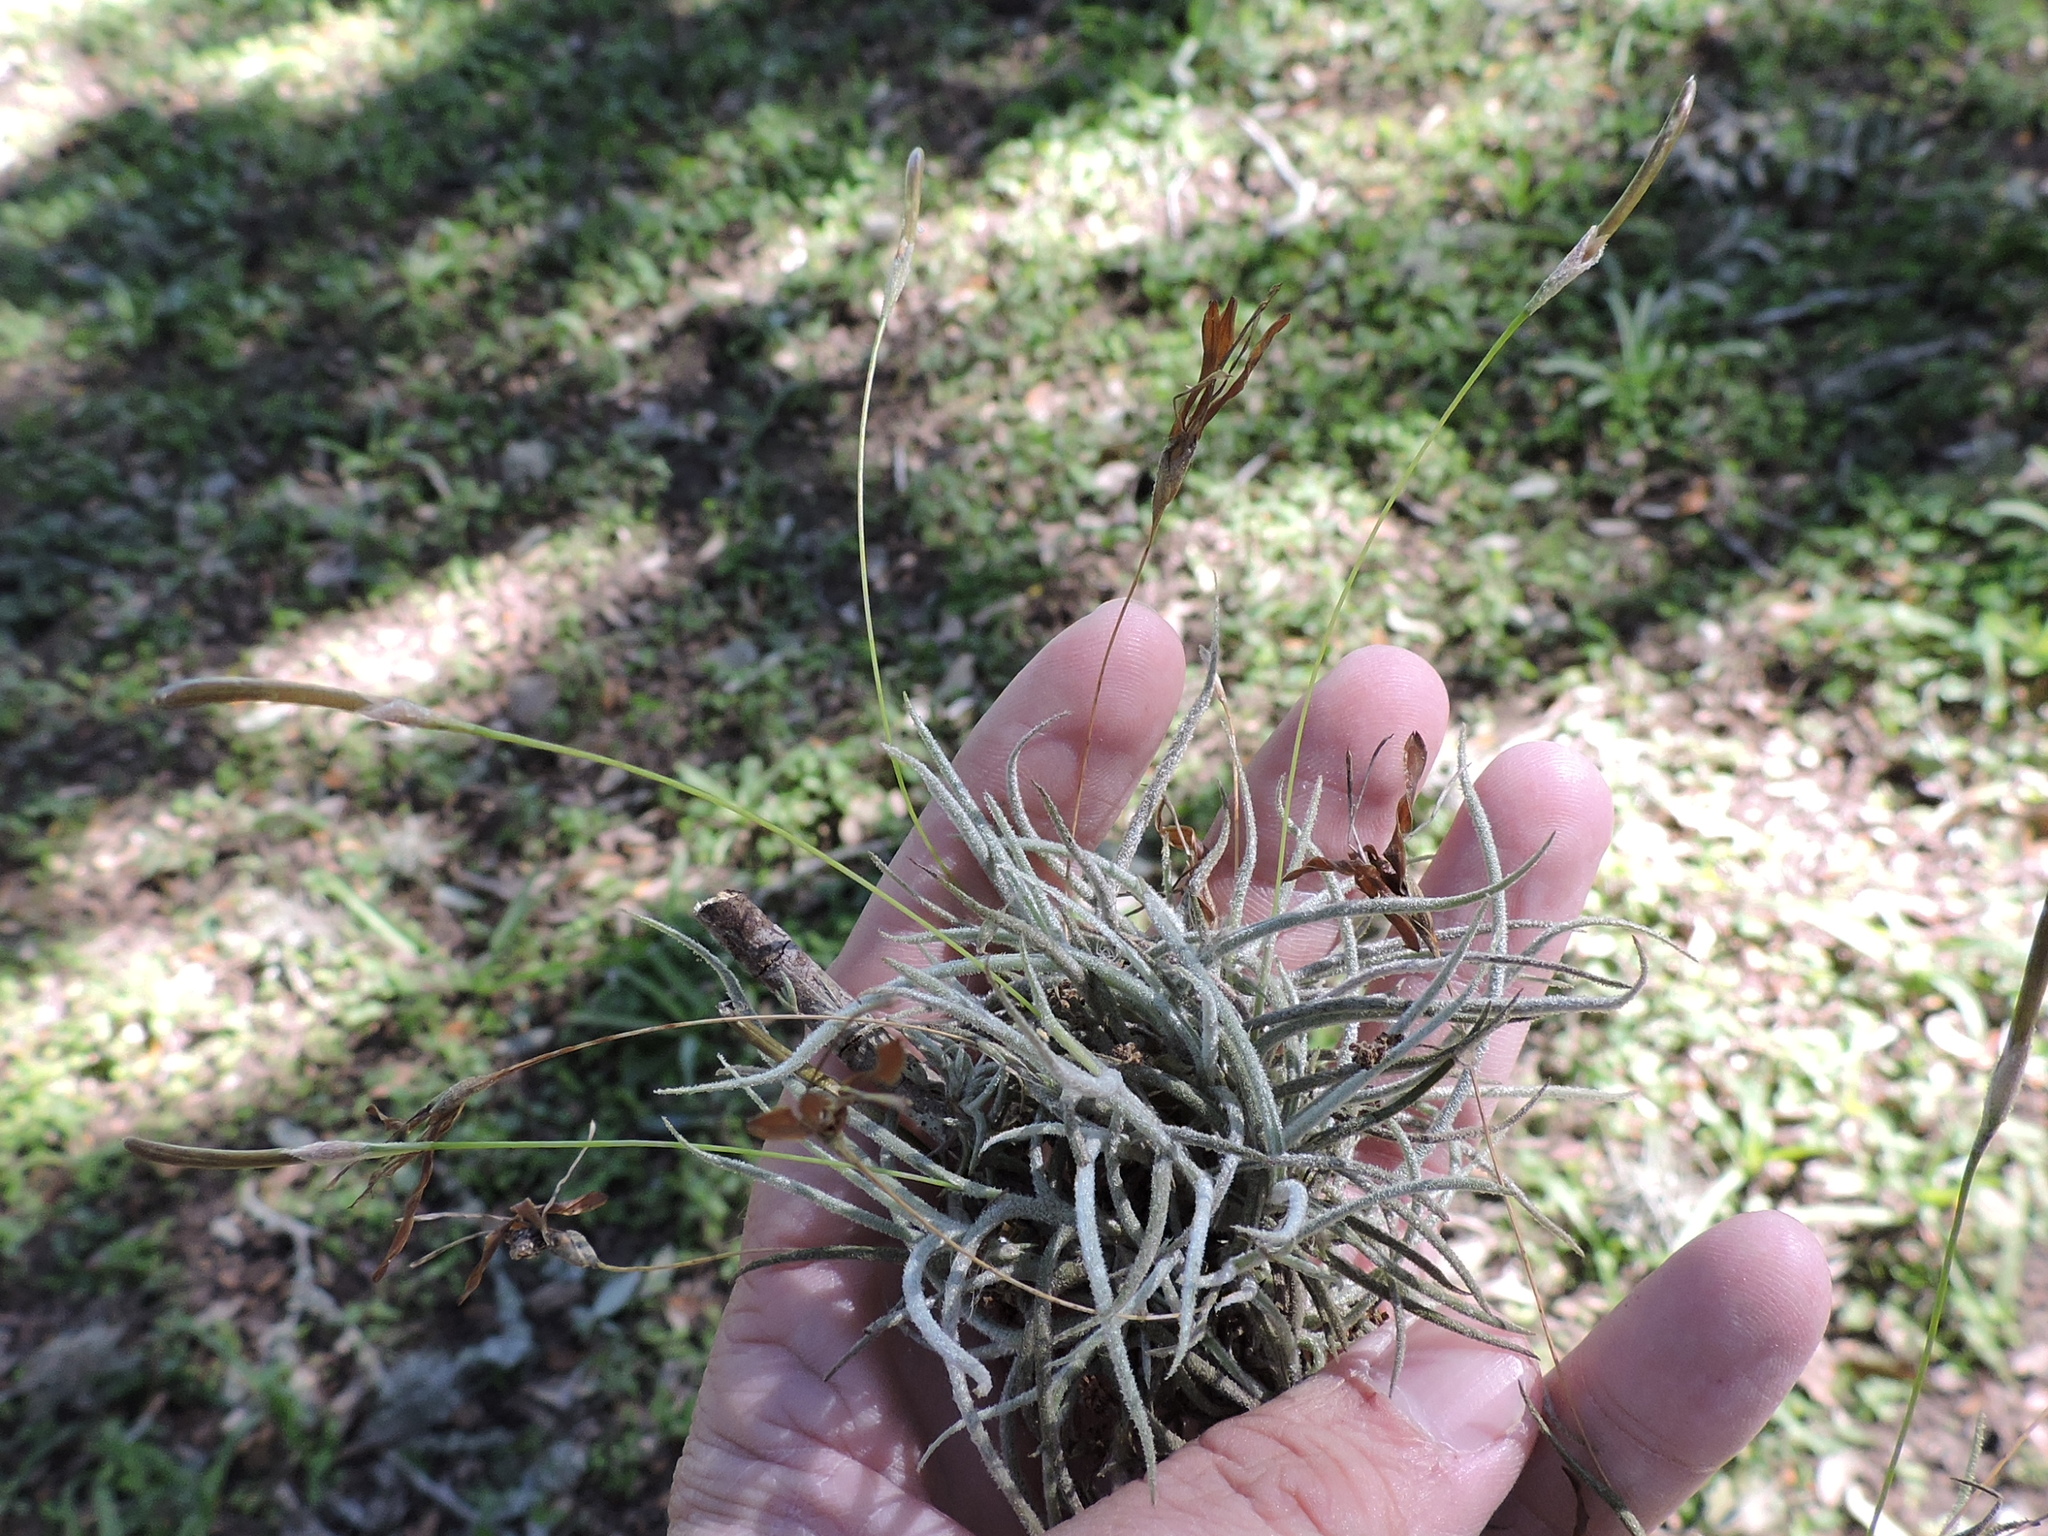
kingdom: Plantae
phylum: Tracheophyta
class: Liliopsida
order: Poales
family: Bromeliaceae
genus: Tillandsia
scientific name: Tillandsia recurvata
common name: Small ballmoss
